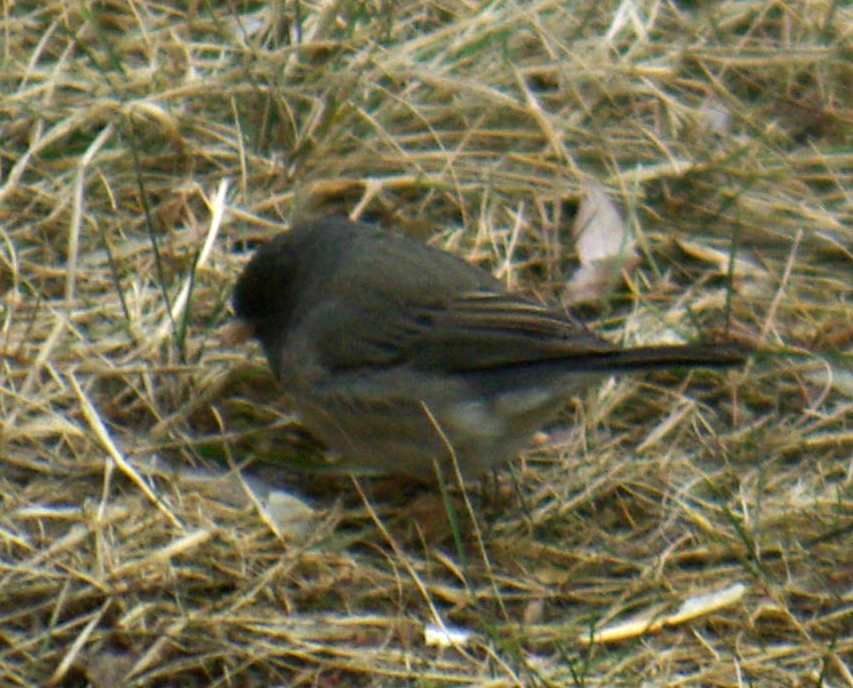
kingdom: Animalia
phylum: Chordata
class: Aves
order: Passeriformes
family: Passerellidae
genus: Junco
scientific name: Junco hyemalis
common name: Dark-eyed junco
